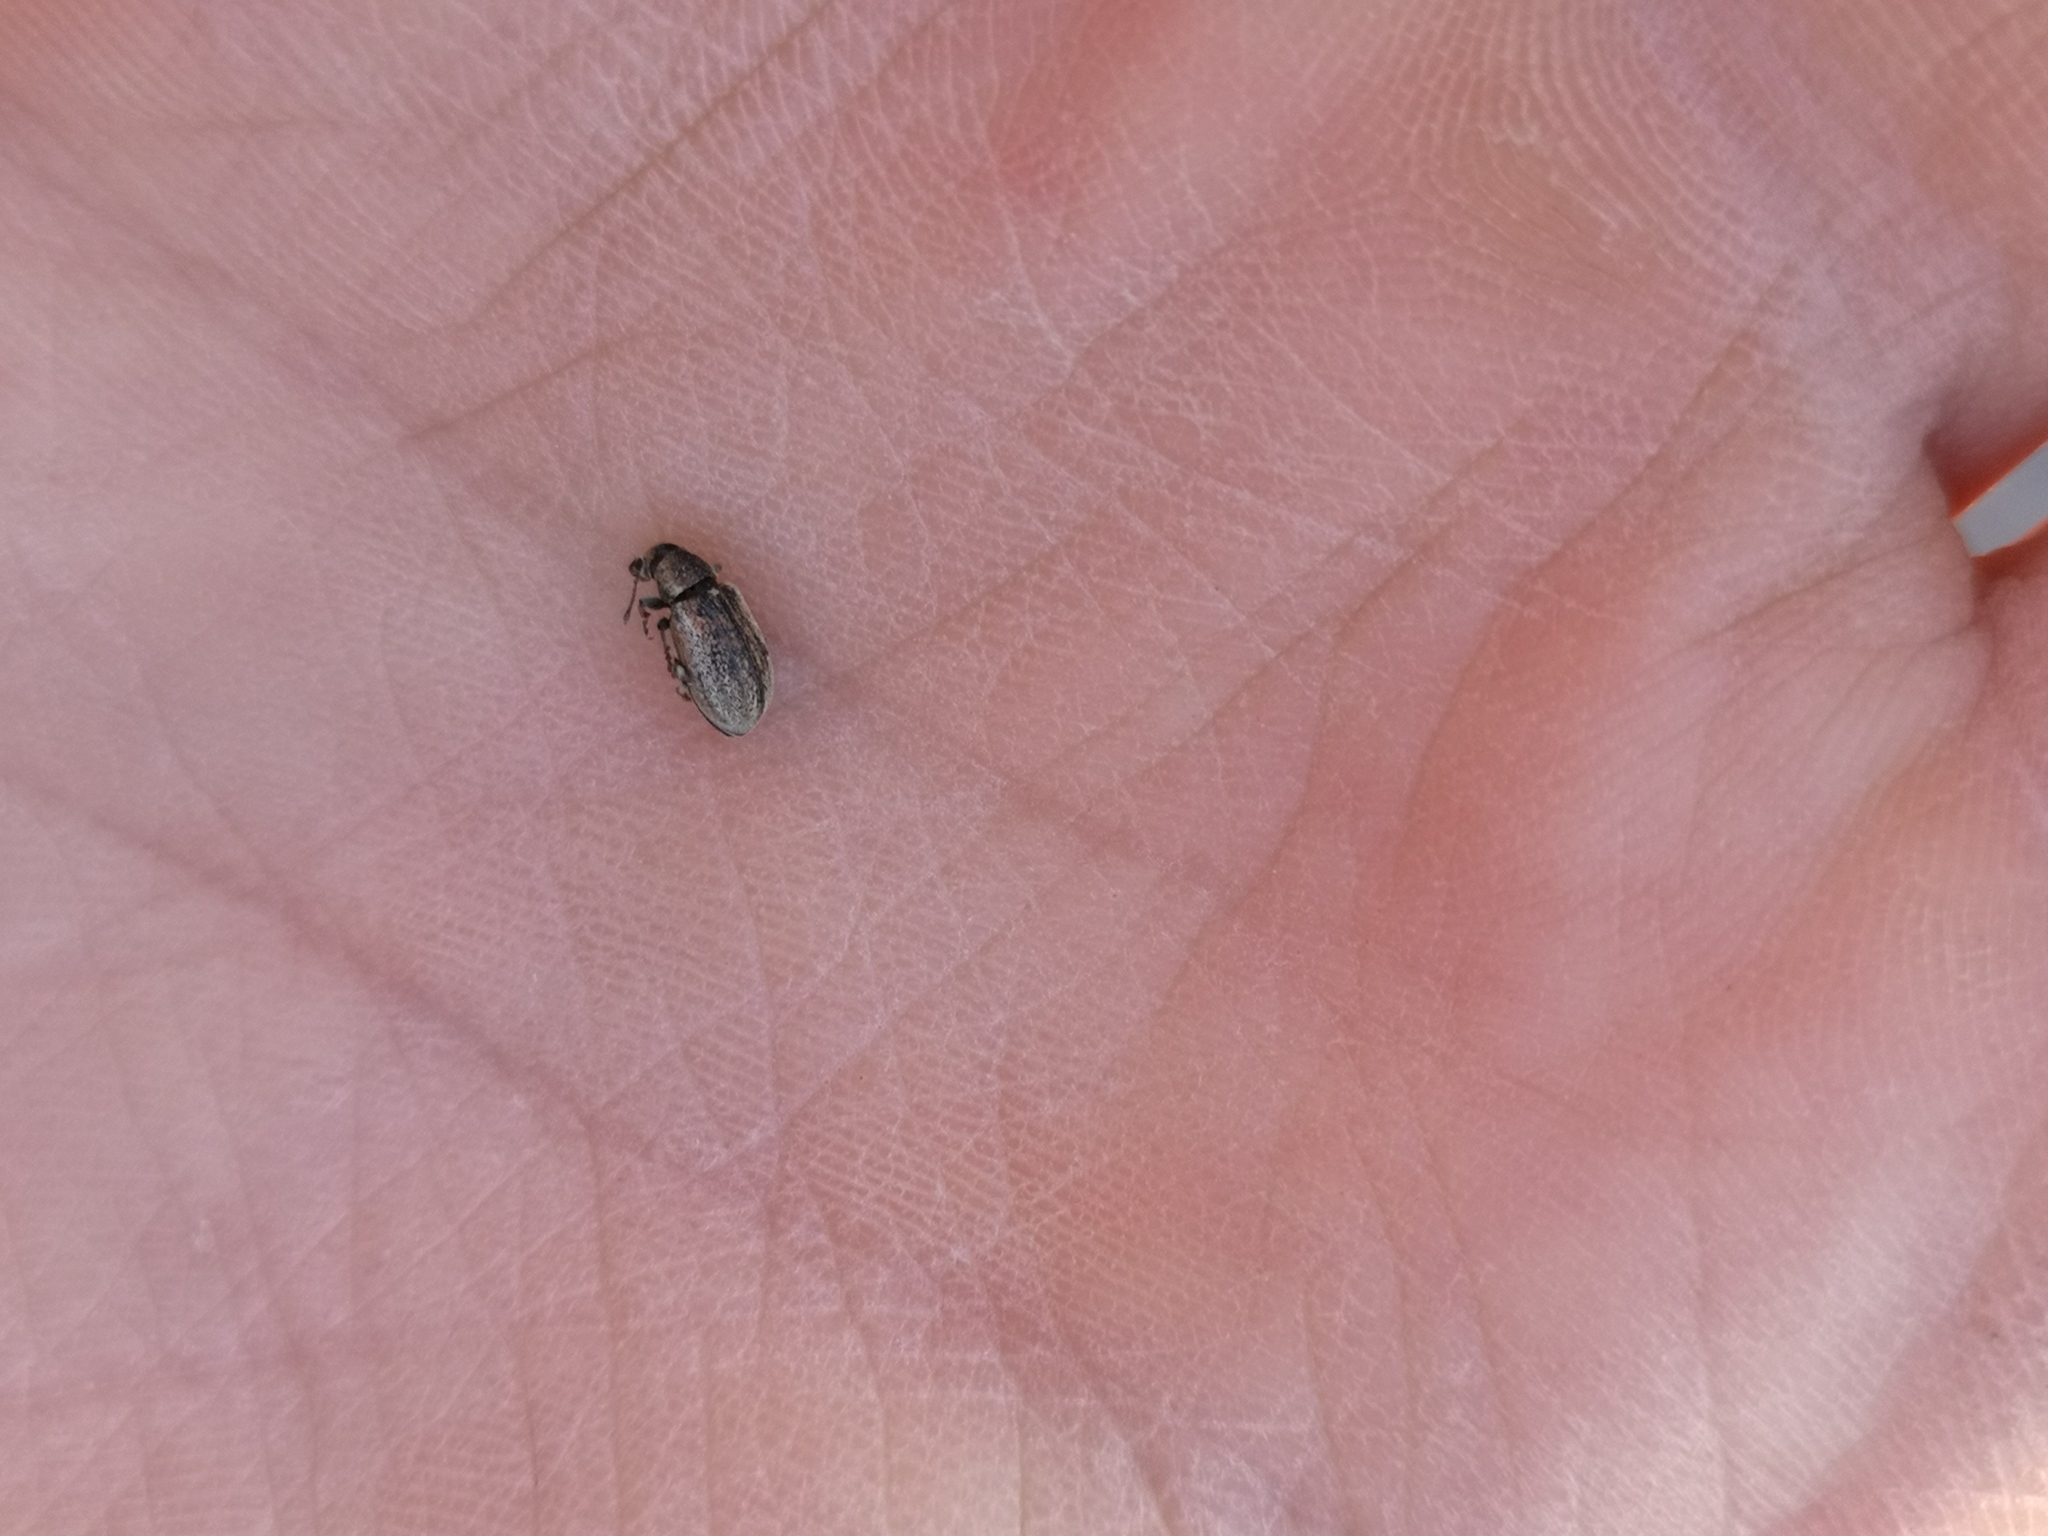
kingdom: Animalia
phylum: Arthropoda
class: Insecta
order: Coleoptera
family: Curculionidae
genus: Phyllobius
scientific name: Phyllobius pyri
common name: Common leaf weevil
